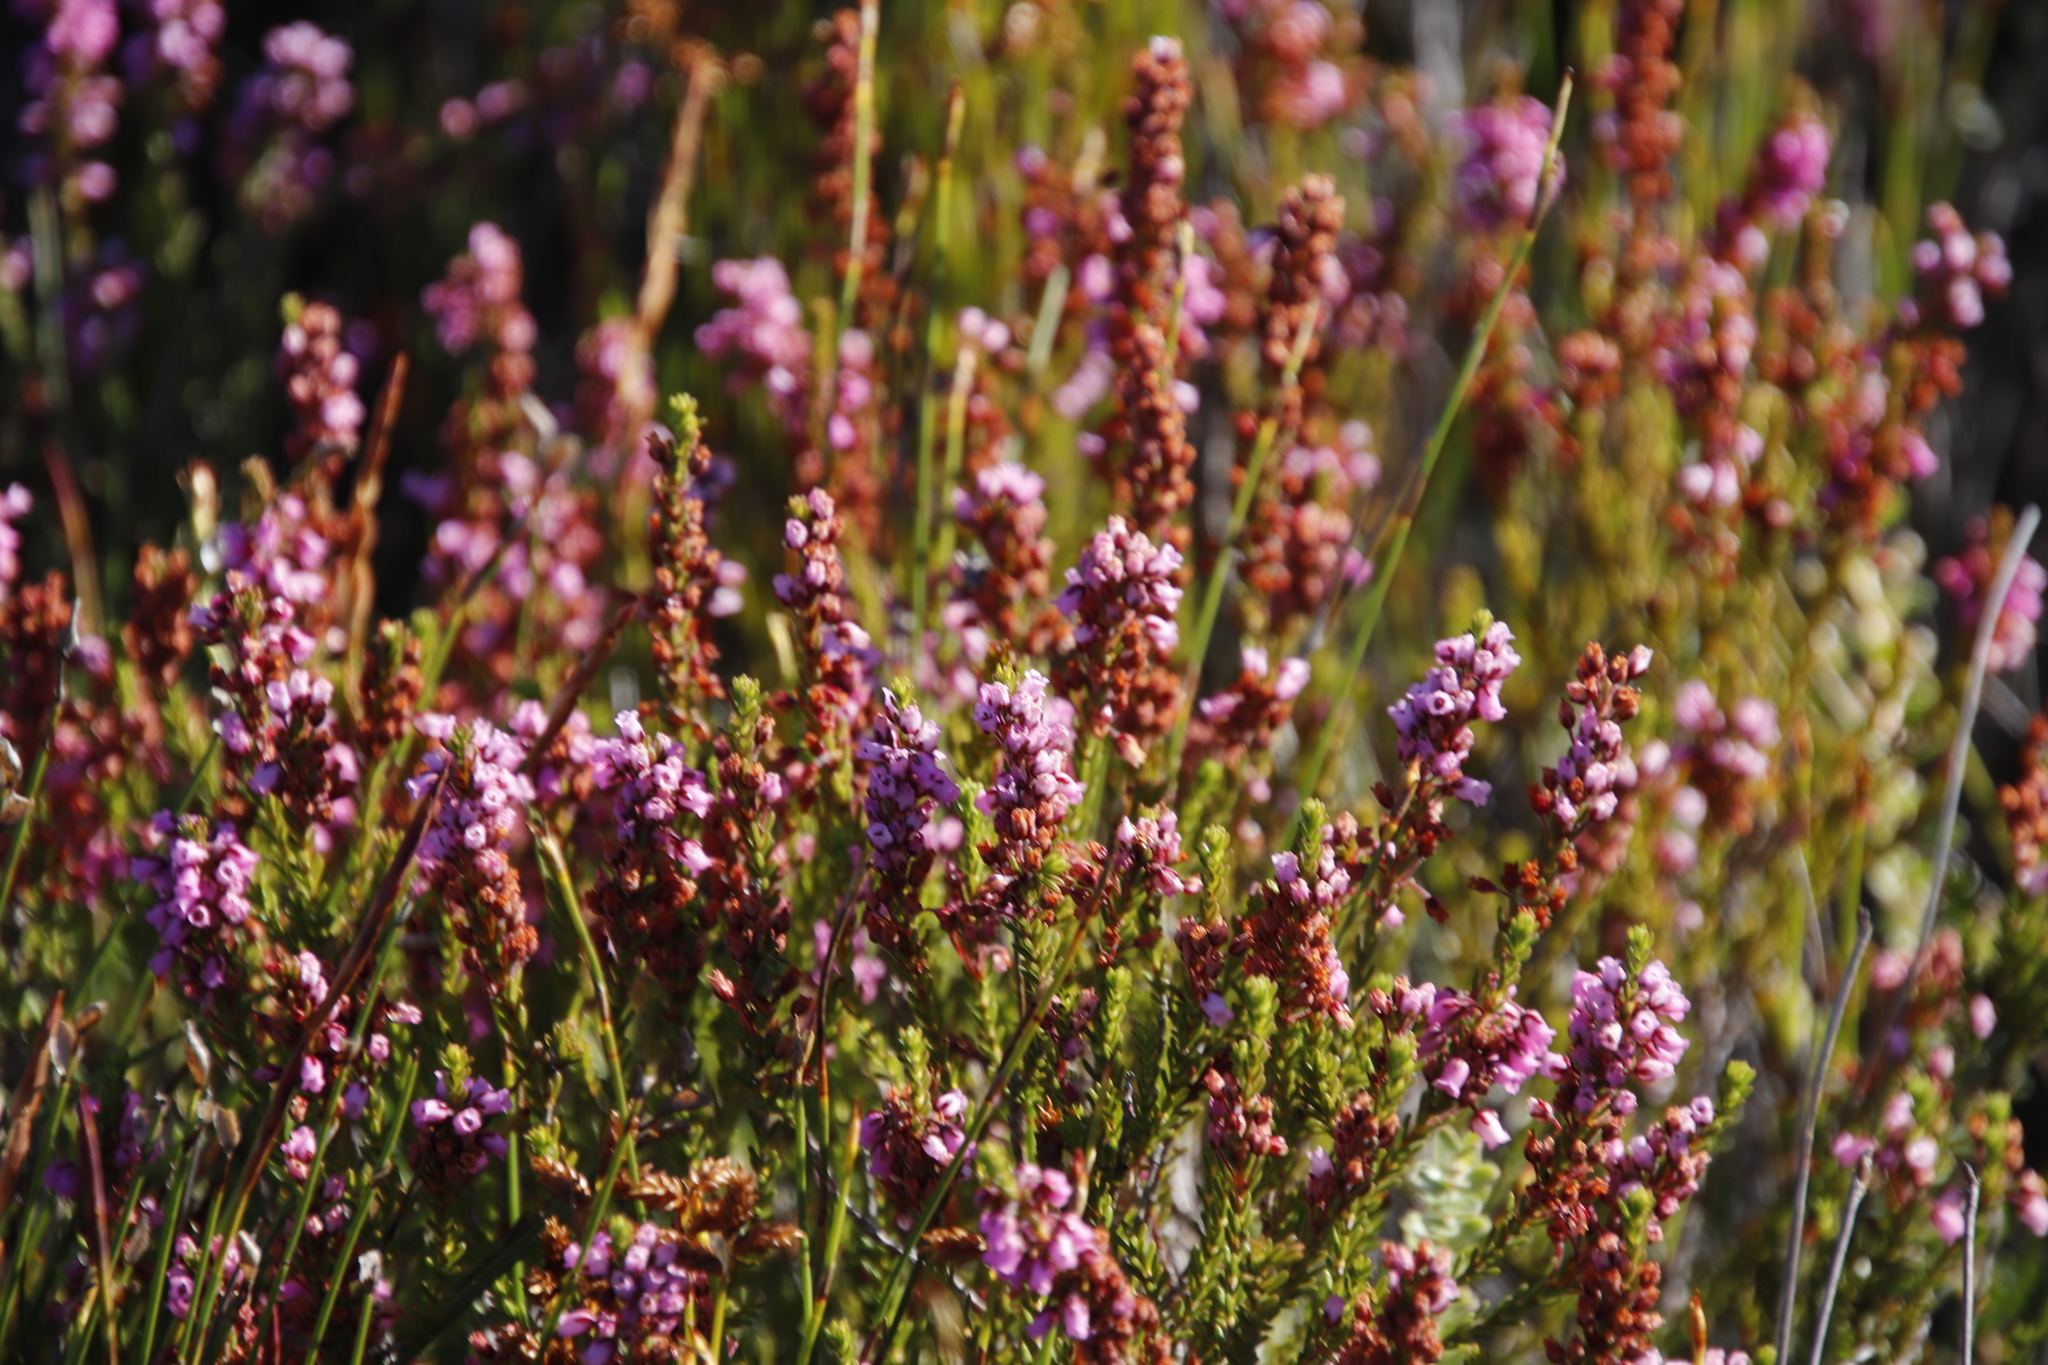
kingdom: Plantae
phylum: Tracheophyta
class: Magnoliopsida
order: Ericales
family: Ericaceae
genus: Erica
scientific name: Erica pulchella
